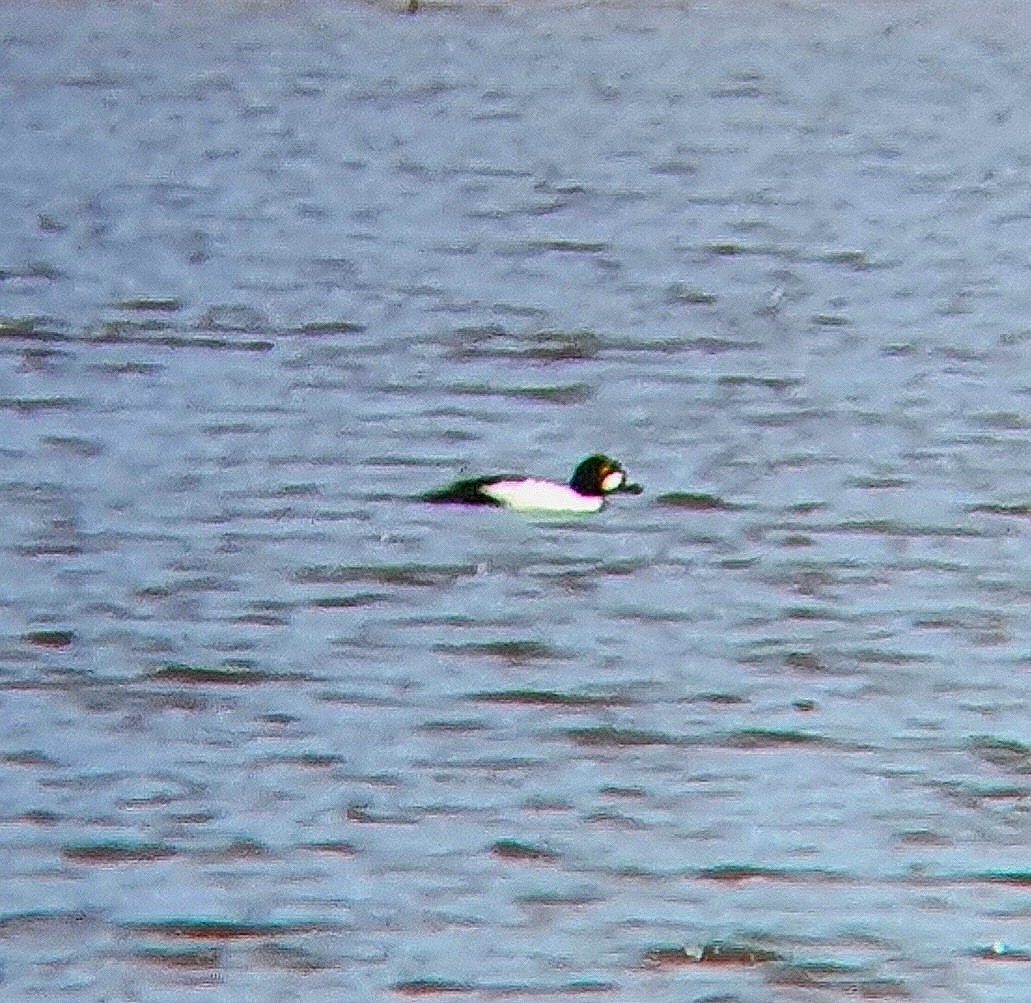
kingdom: Animalia
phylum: Chordata
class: Aves
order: Anseriformes
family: Anatidae
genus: Bucephala
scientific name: Bucephala clangula
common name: Common goldeneye
